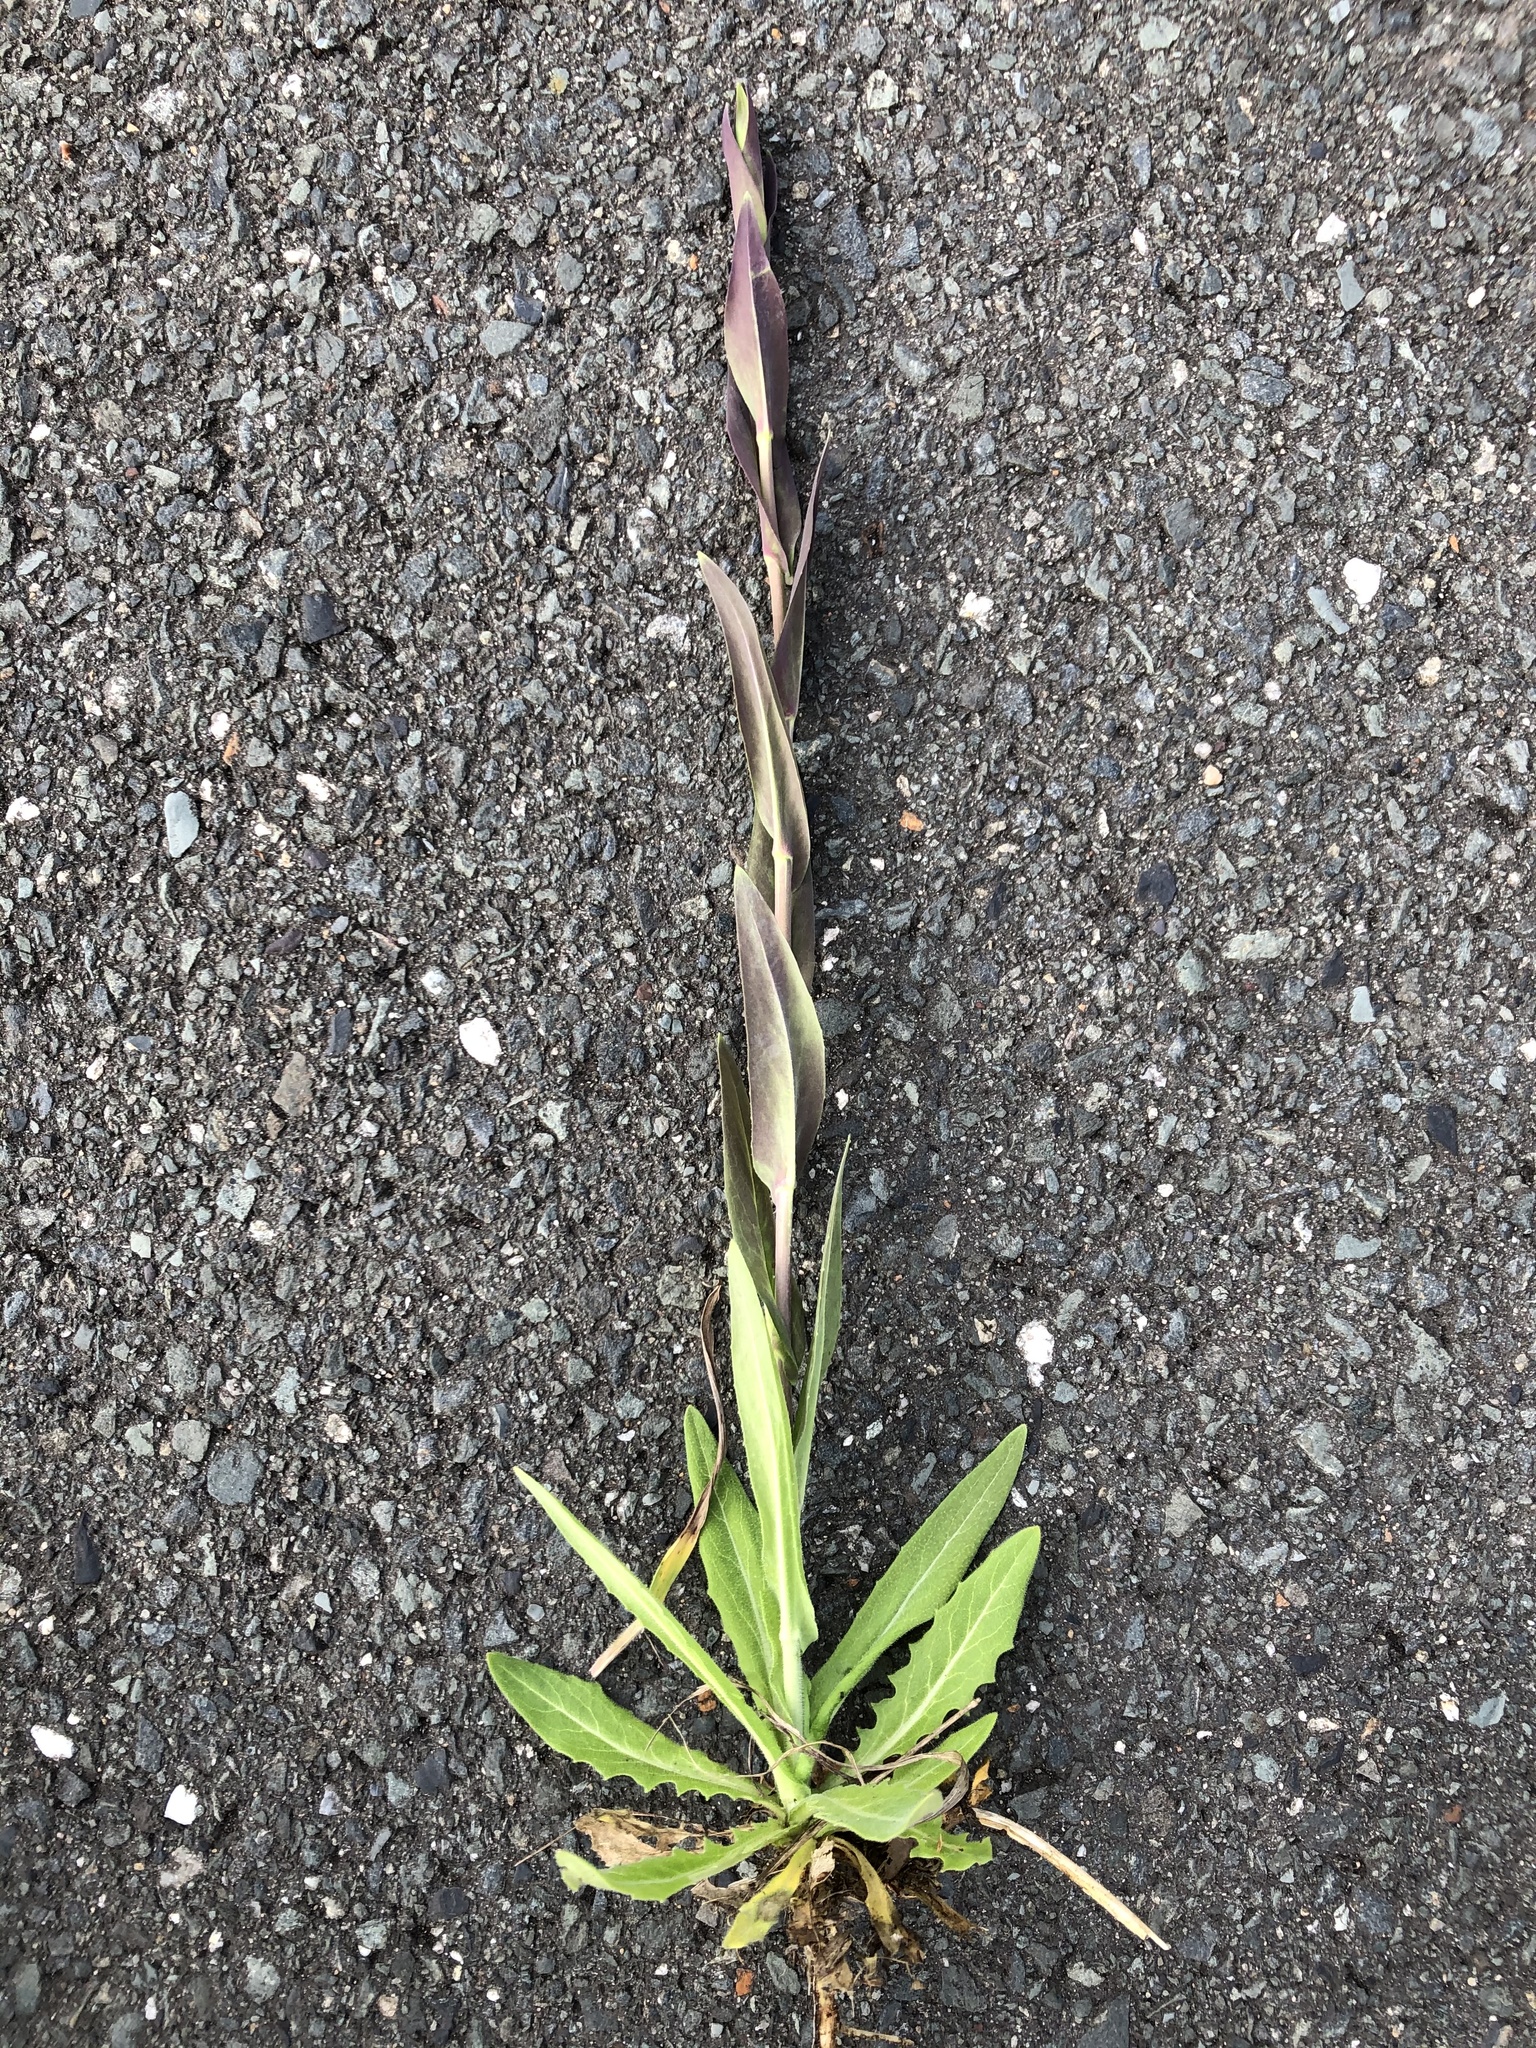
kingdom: Plantae
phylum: Tracheophyta
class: Magnoliopsida
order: Brassicales
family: Brassicaceae
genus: Turritis
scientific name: Turritis glabra
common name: Tower rockcress
